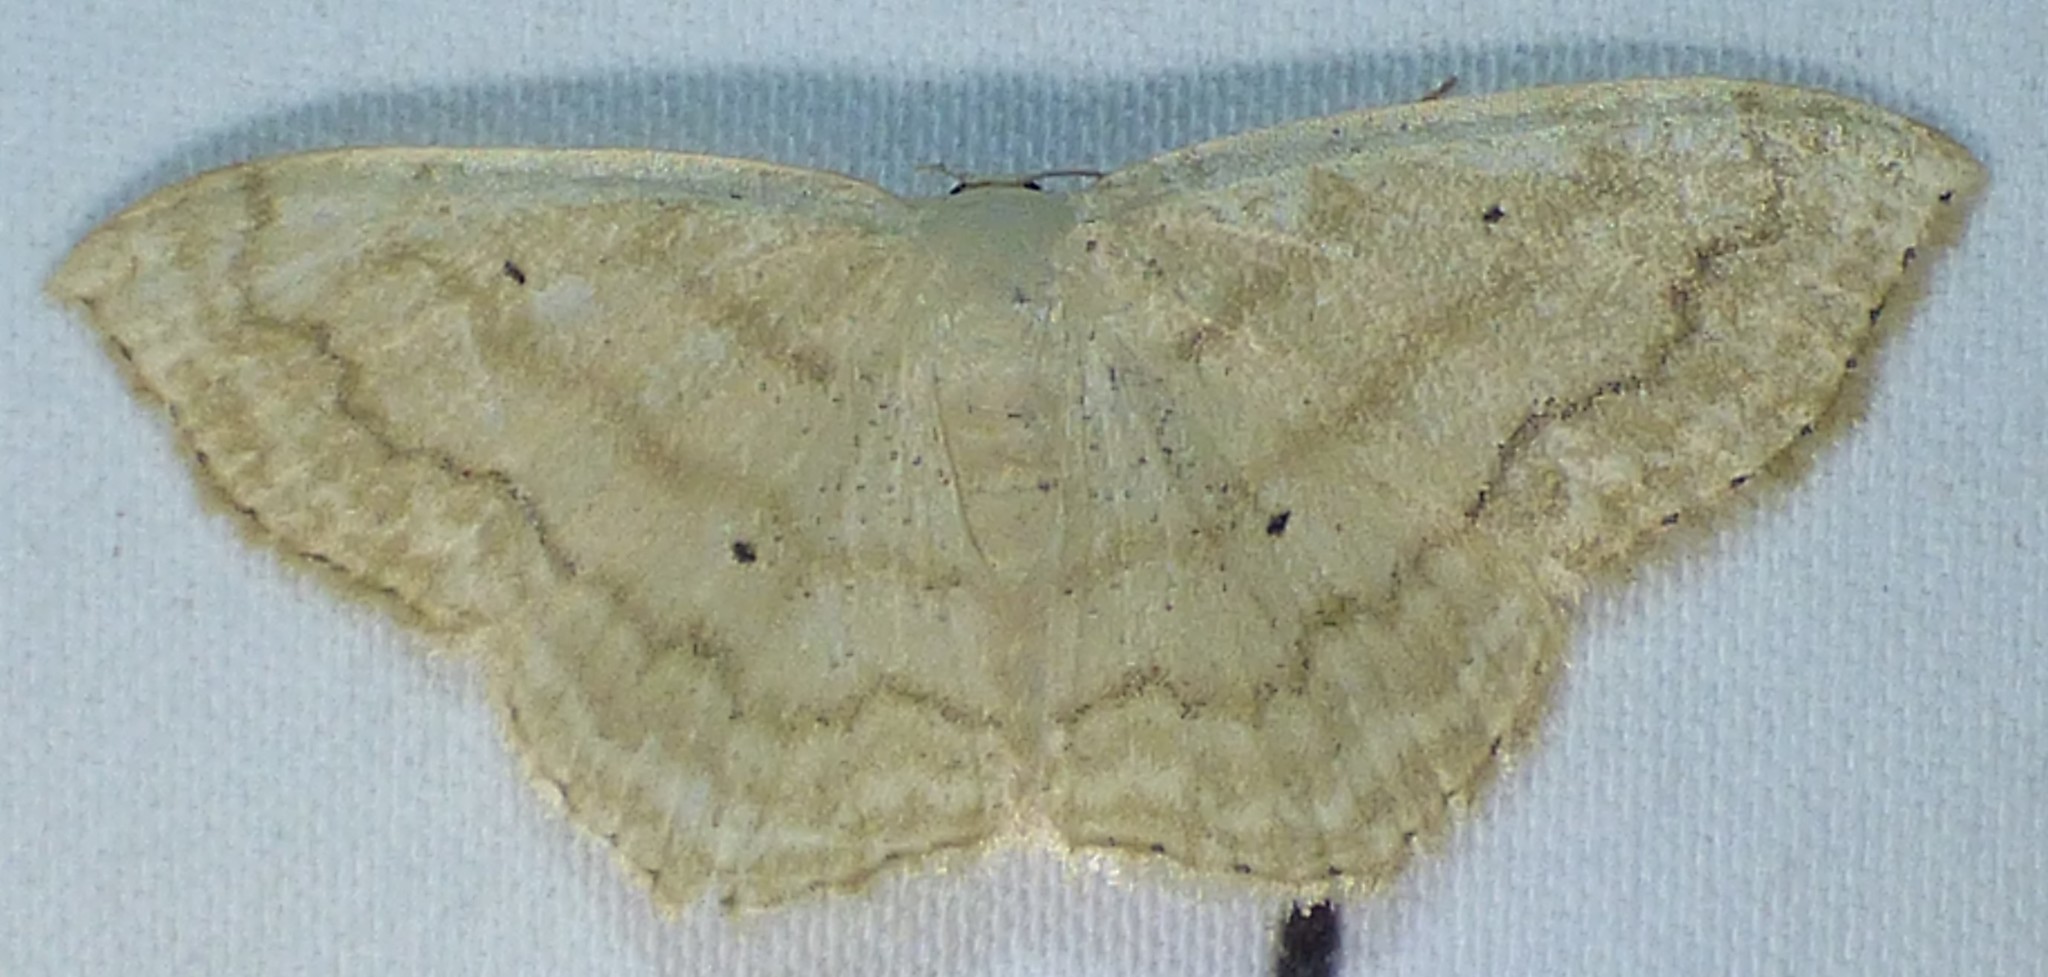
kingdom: Animalia
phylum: Arthropoda
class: Insecta
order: Lepidoptera
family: Geometridae
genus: Scopula
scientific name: Scopula limboundata
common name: Large lace border
